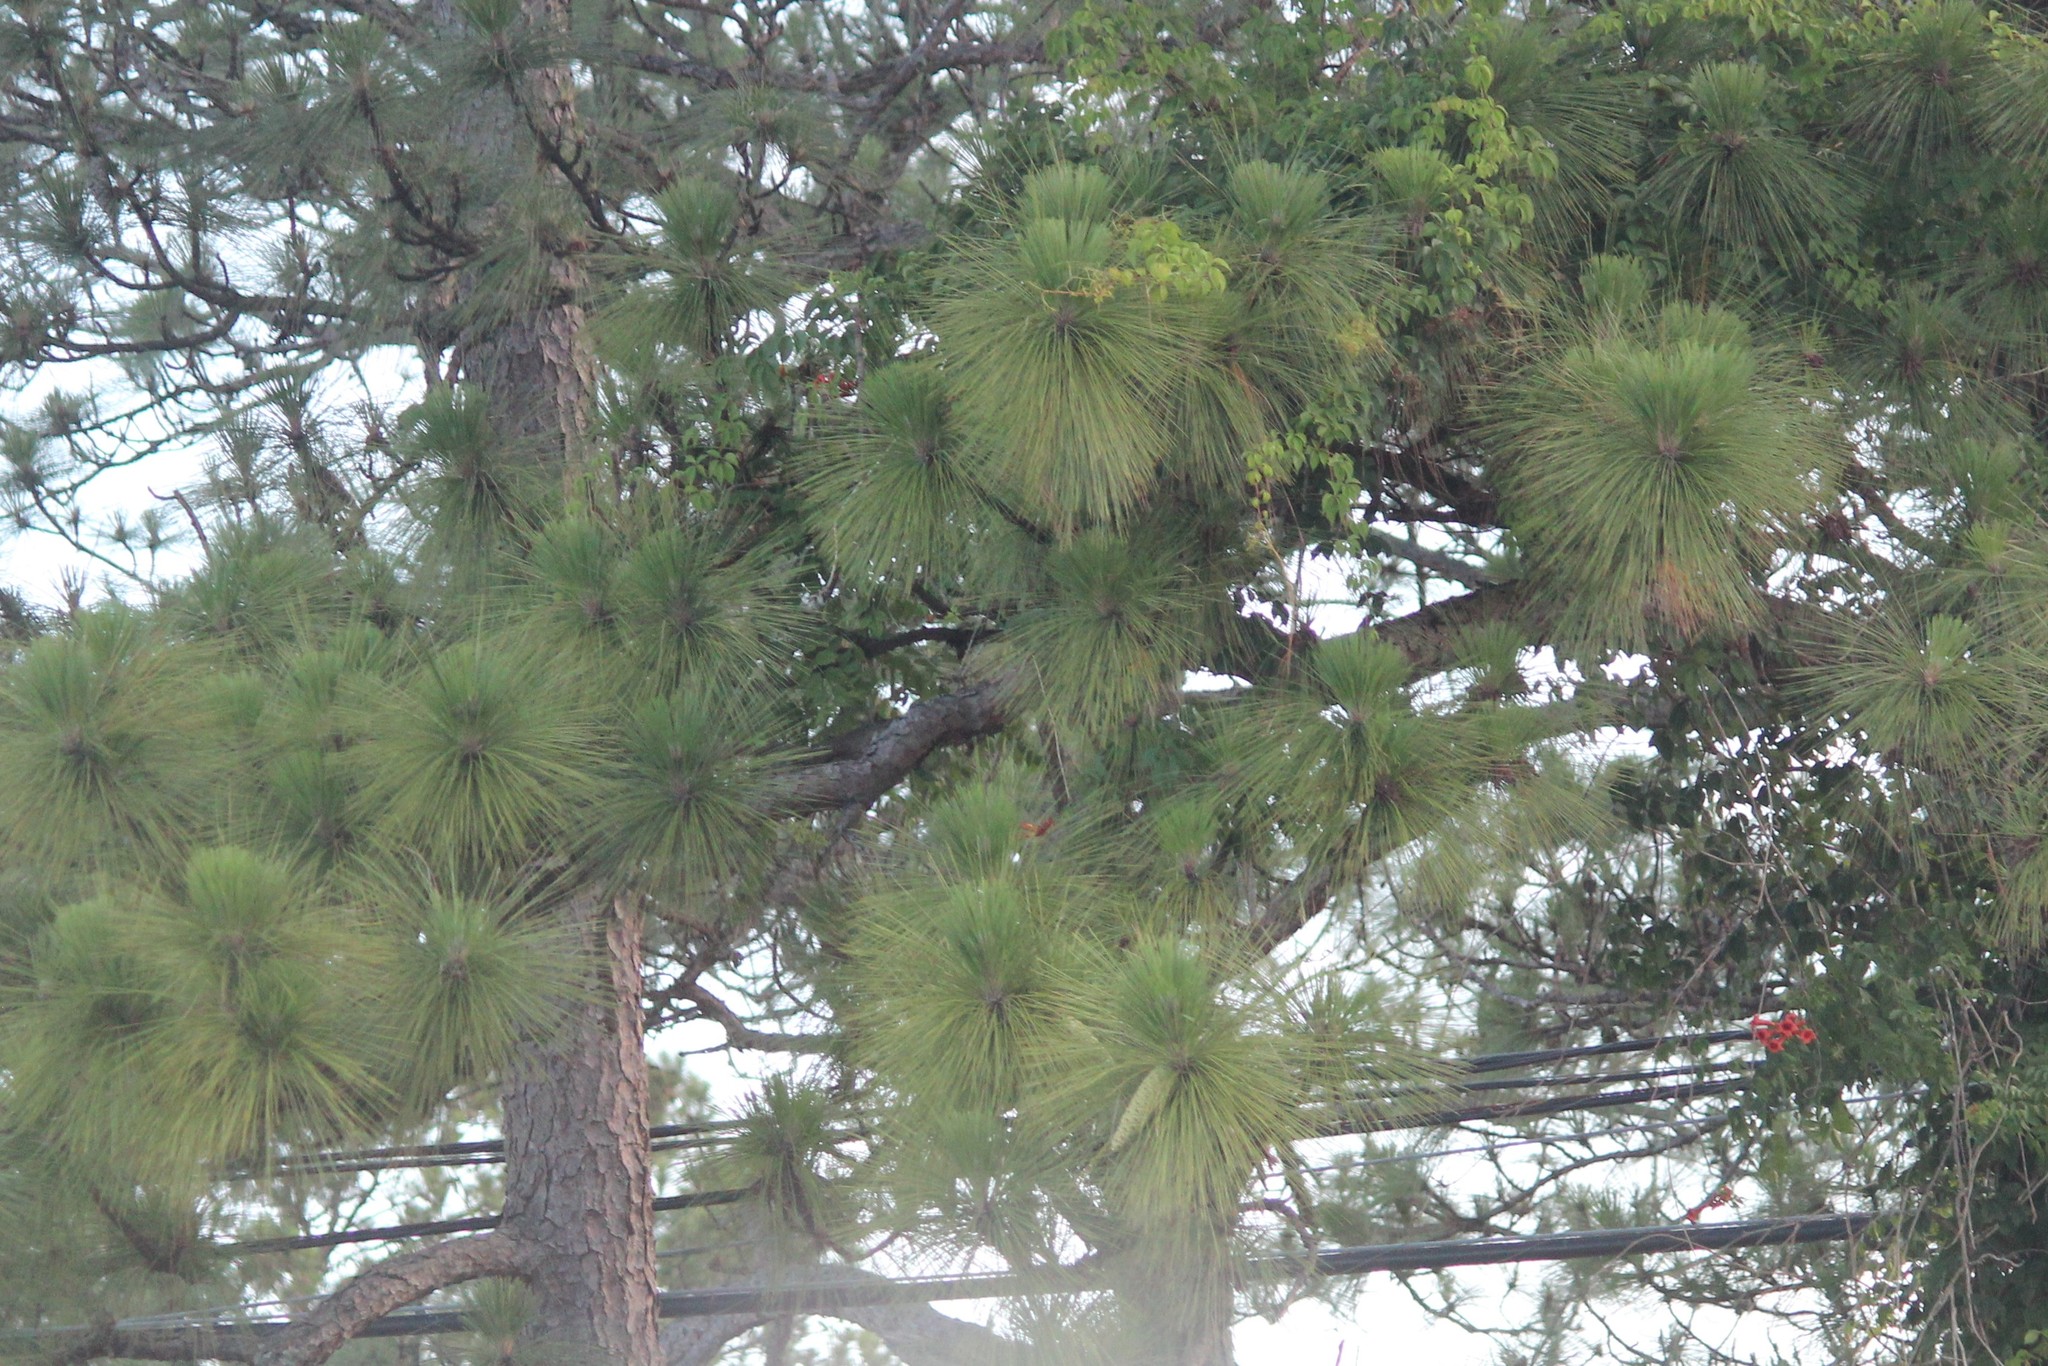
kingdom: Plantae
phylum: Tracheophyta
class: Pinopsida
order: Pinales
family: Pinaceae
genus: Pinus
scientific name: Pinus palustris
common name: Longleaf pine
